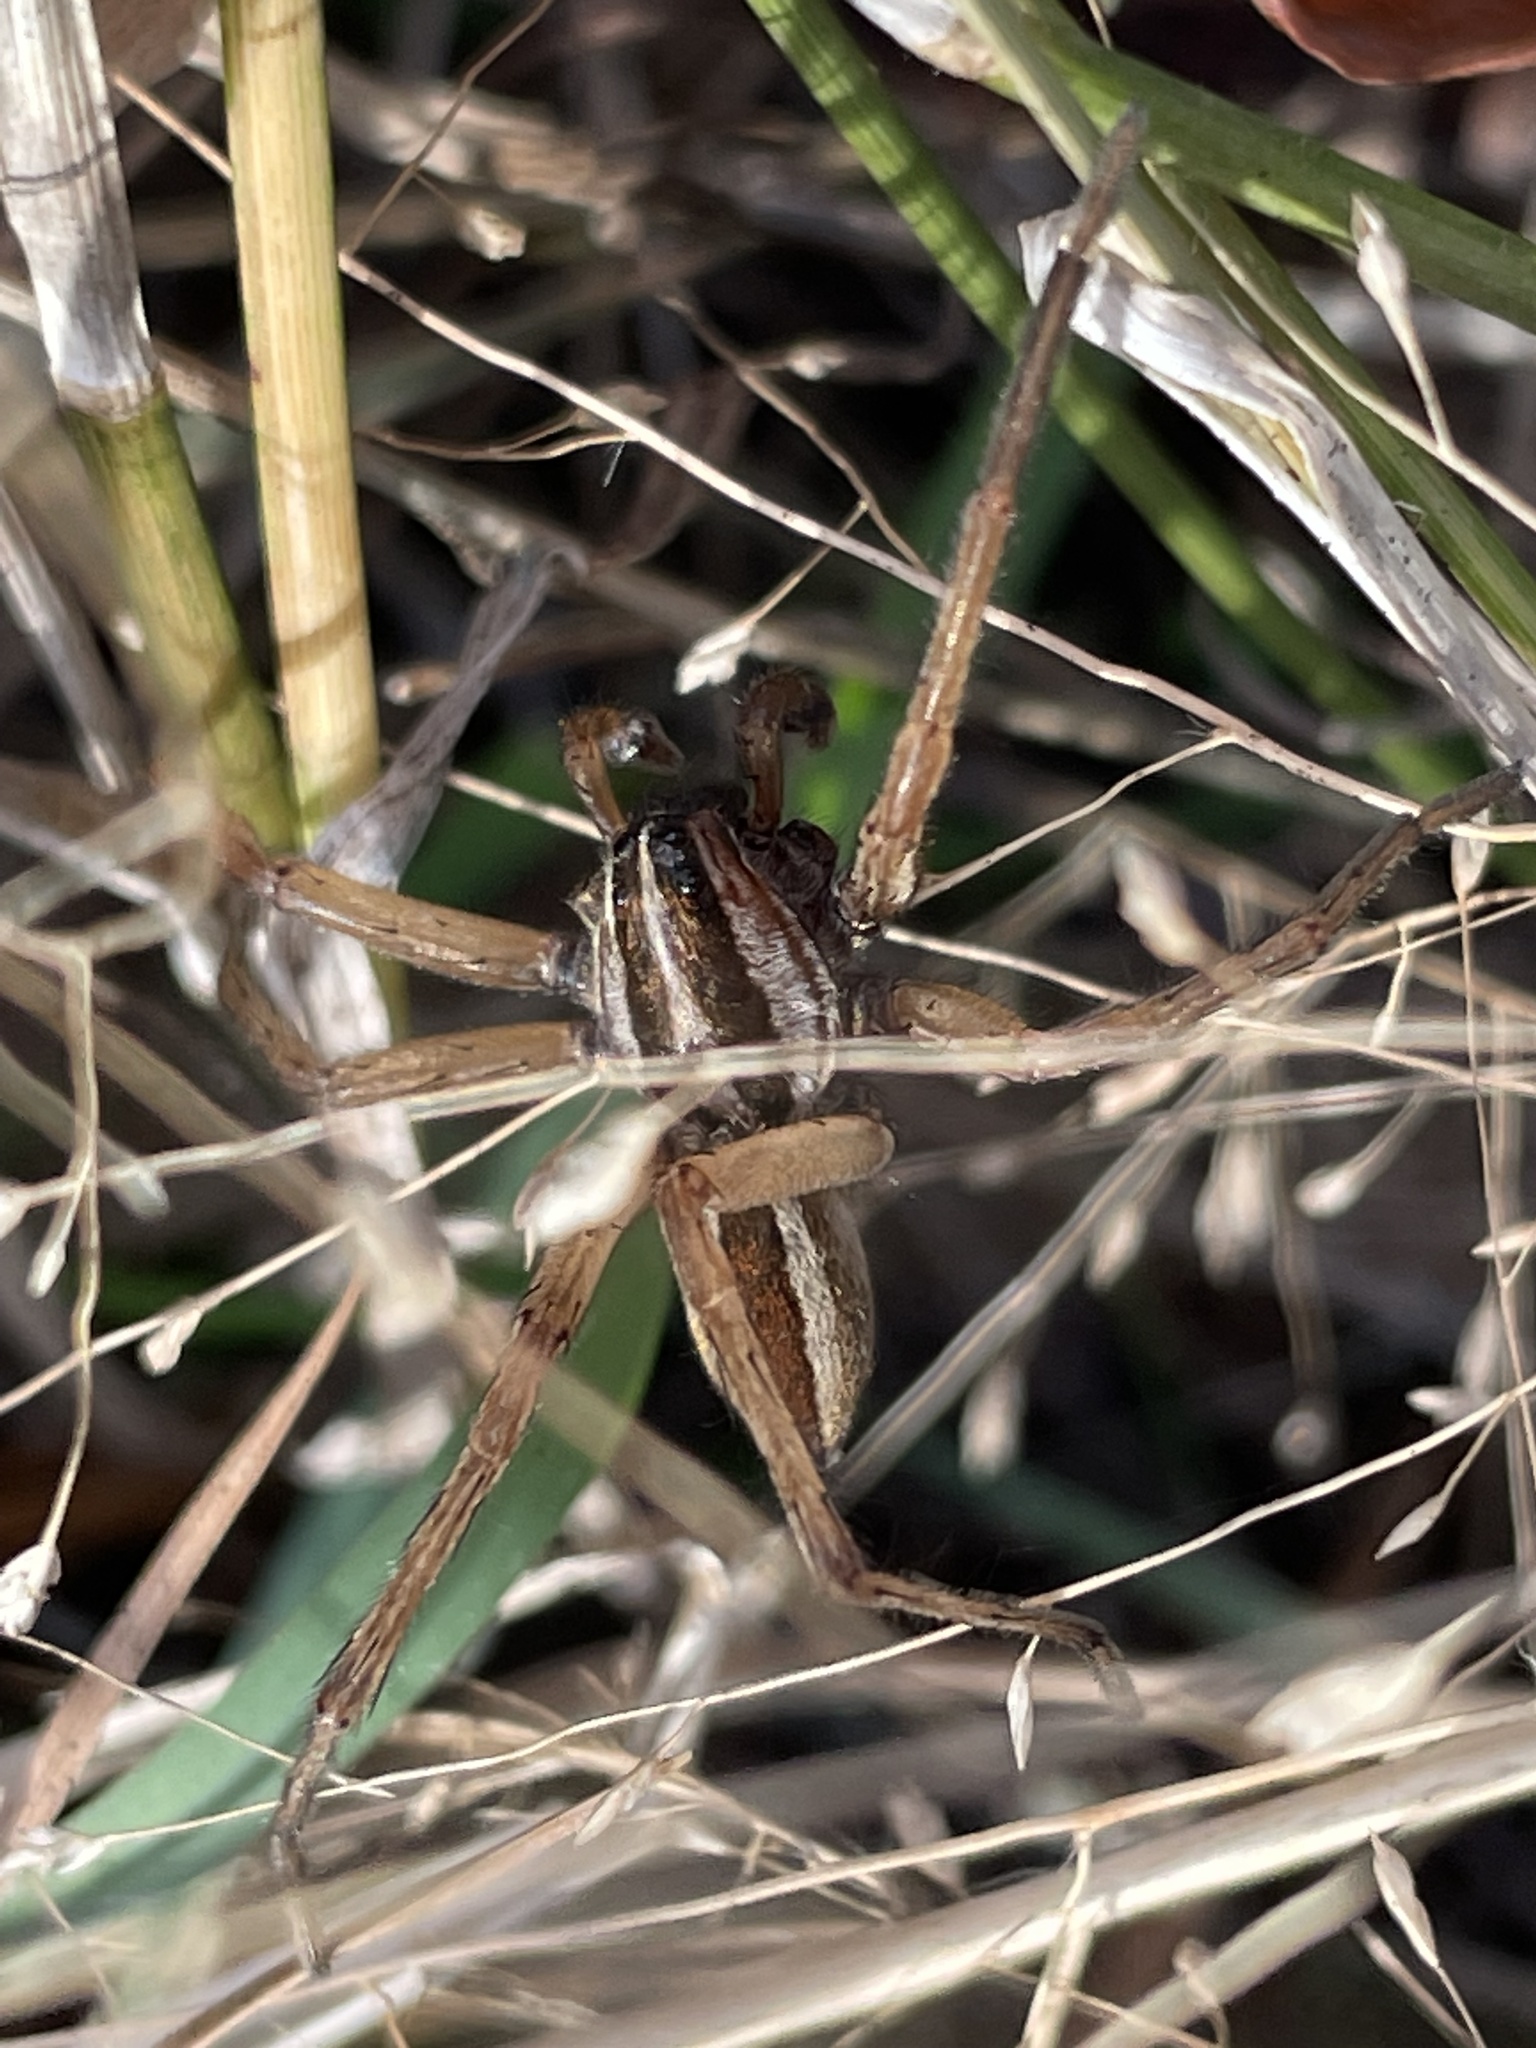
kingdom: Animalia
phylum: Arthropoda
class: Arachnida
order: Araneae
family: Lycosidae
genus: Rabidosa
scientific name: Rabidosa
